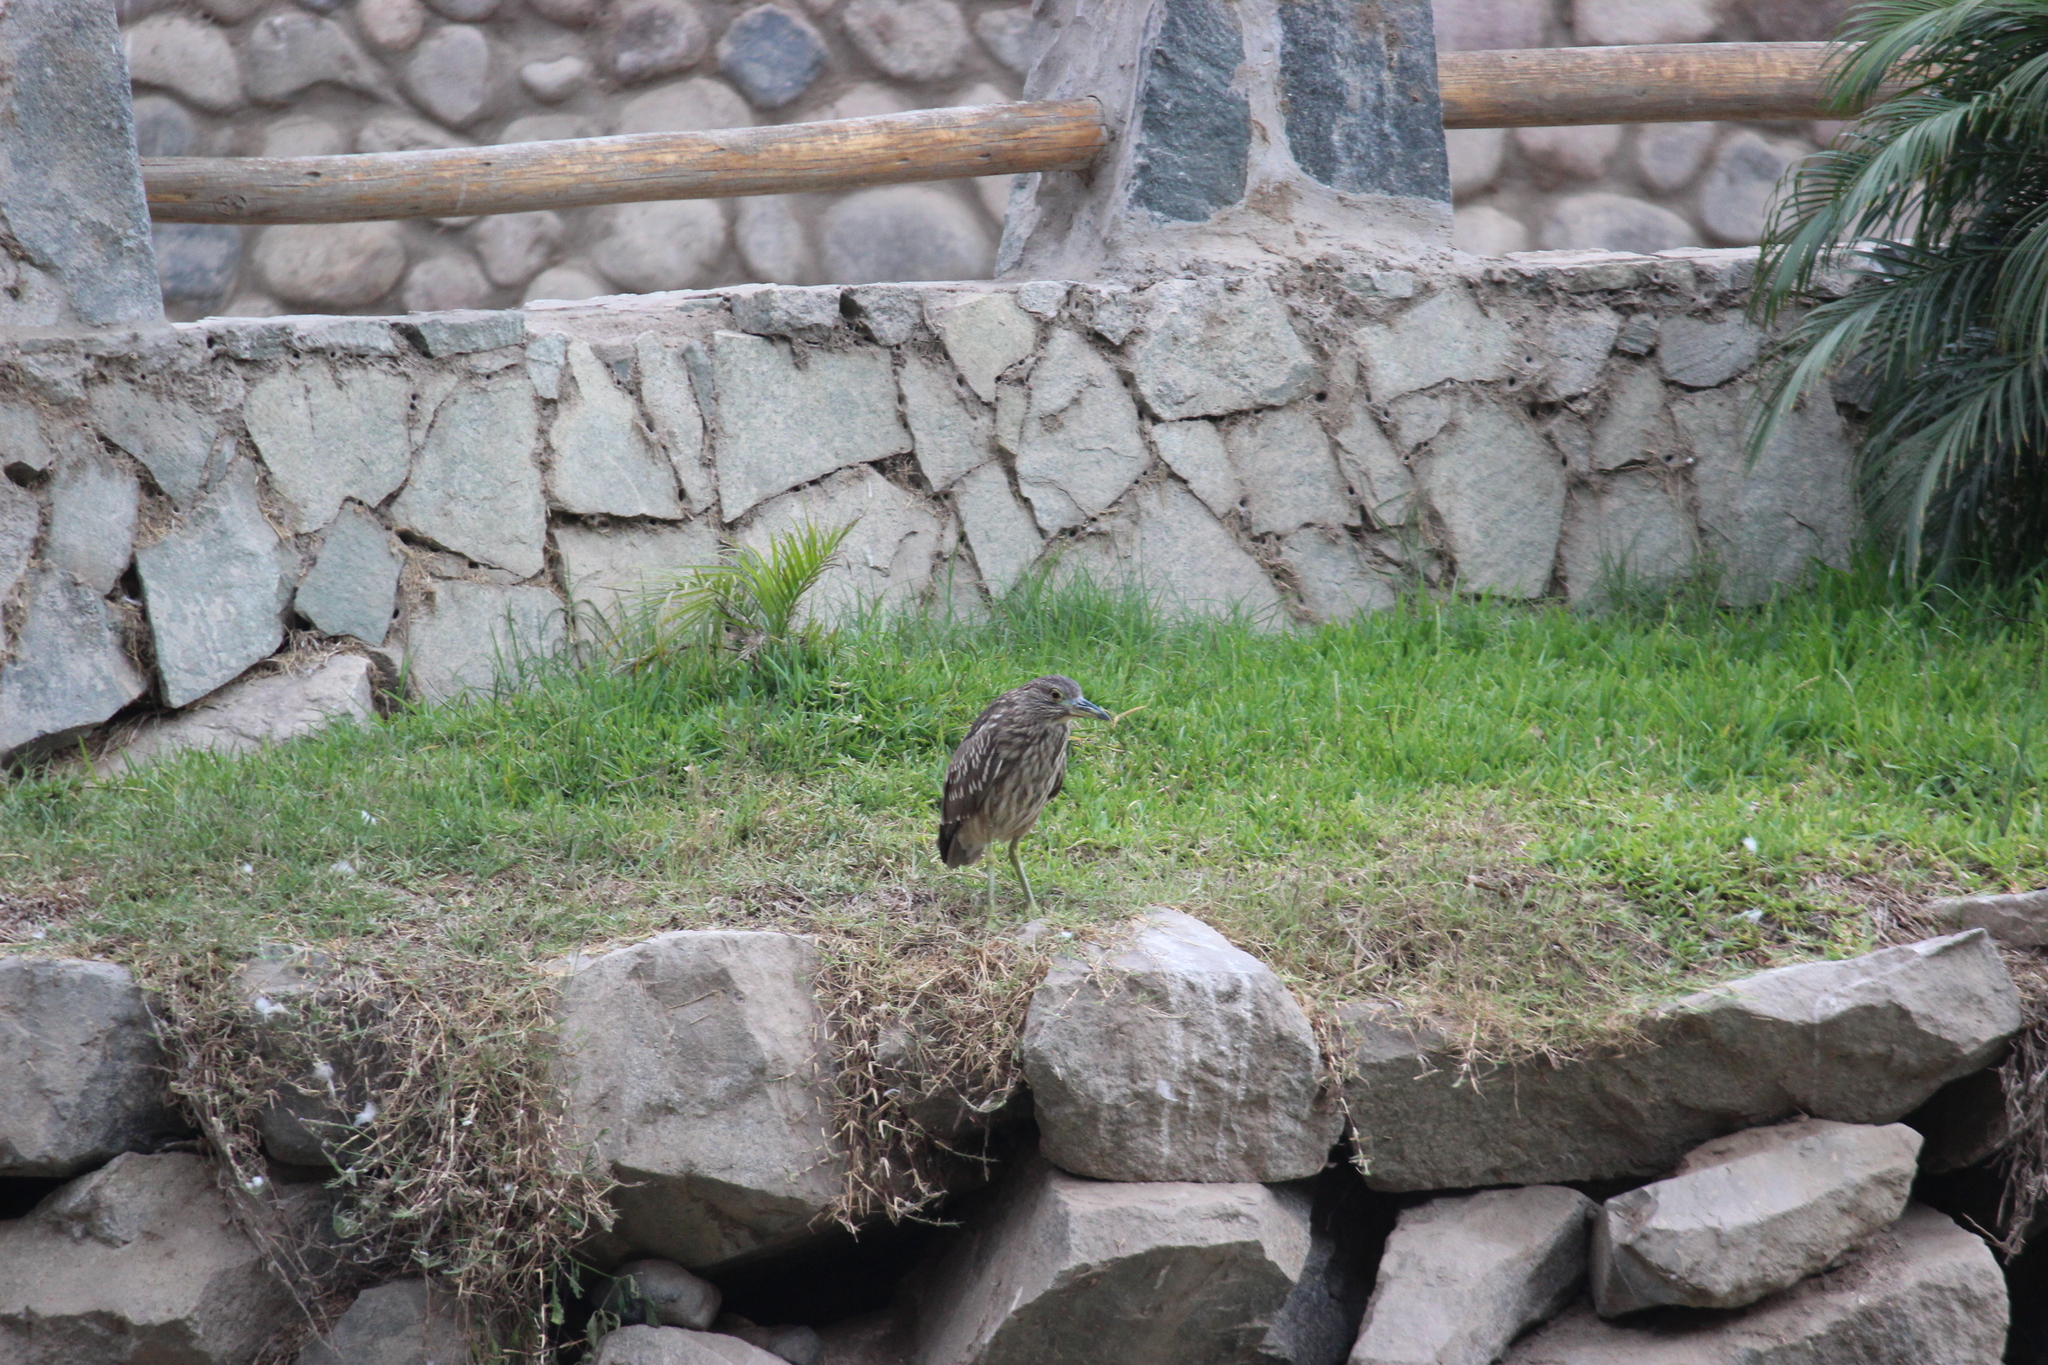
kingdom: Animalia
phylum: Chordata
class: Aves
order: Pelecaniformes
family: Ardeidae
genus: Nycticorax
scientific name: Nycticorax nycticorax
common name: Black-crowned night heron
